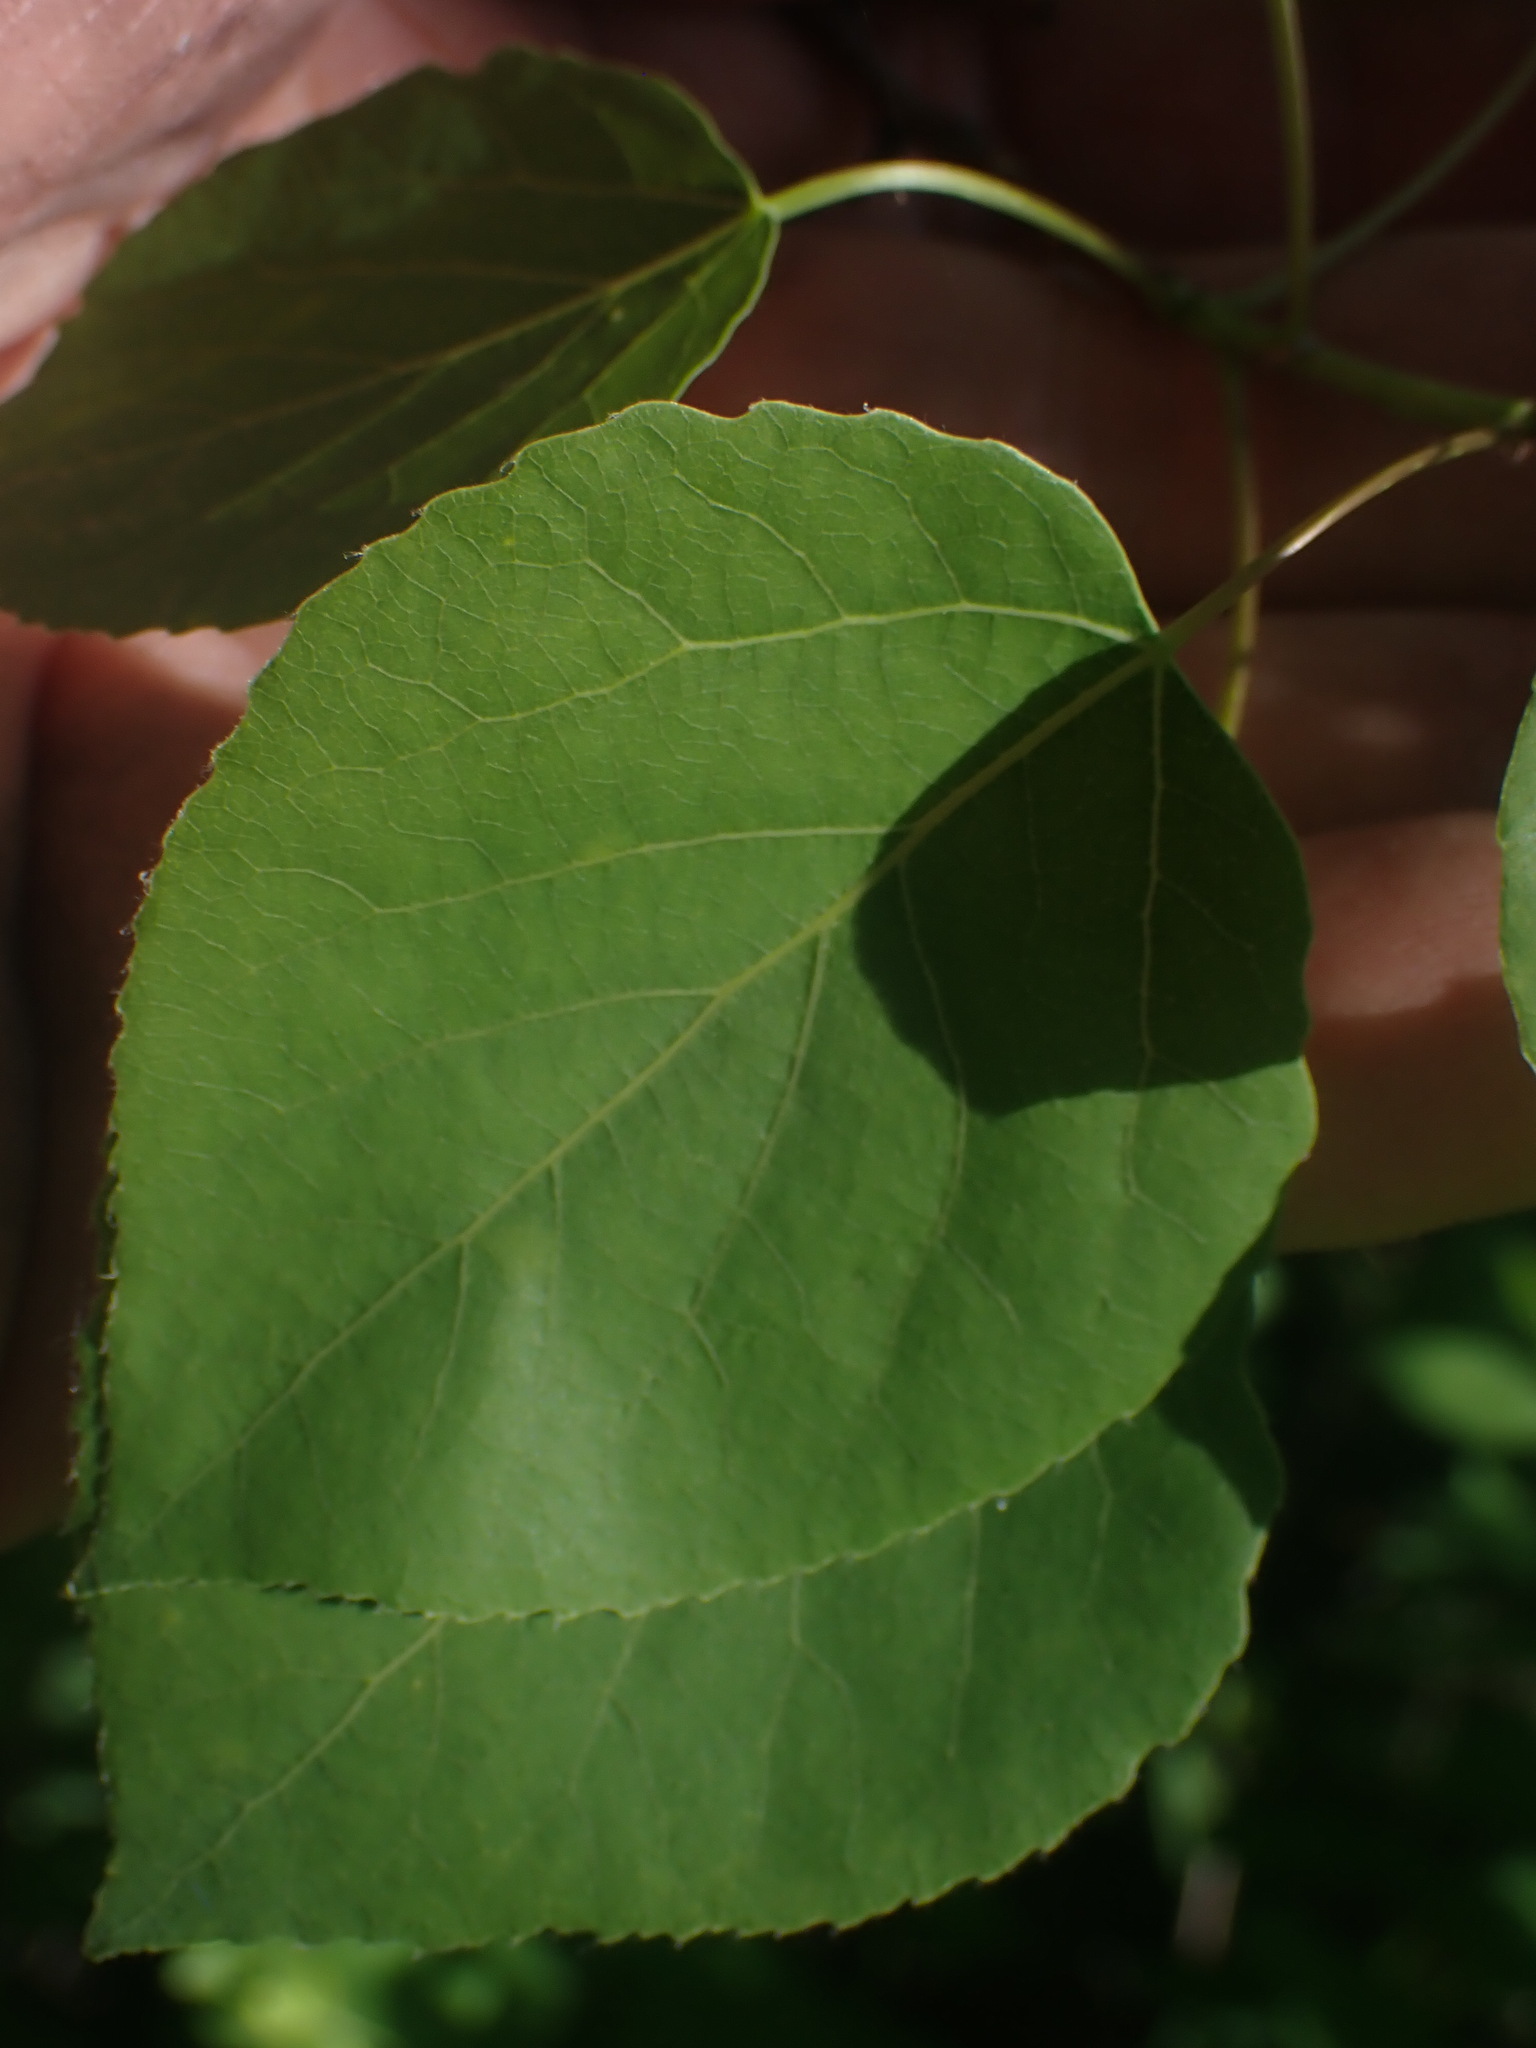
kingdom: Plantae
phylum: Tracheophyta
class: Magnoliopsida
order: Malpighiales
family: Salicaceae
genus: Populus
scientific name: Populus tremuloides
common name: Quaking aspen
